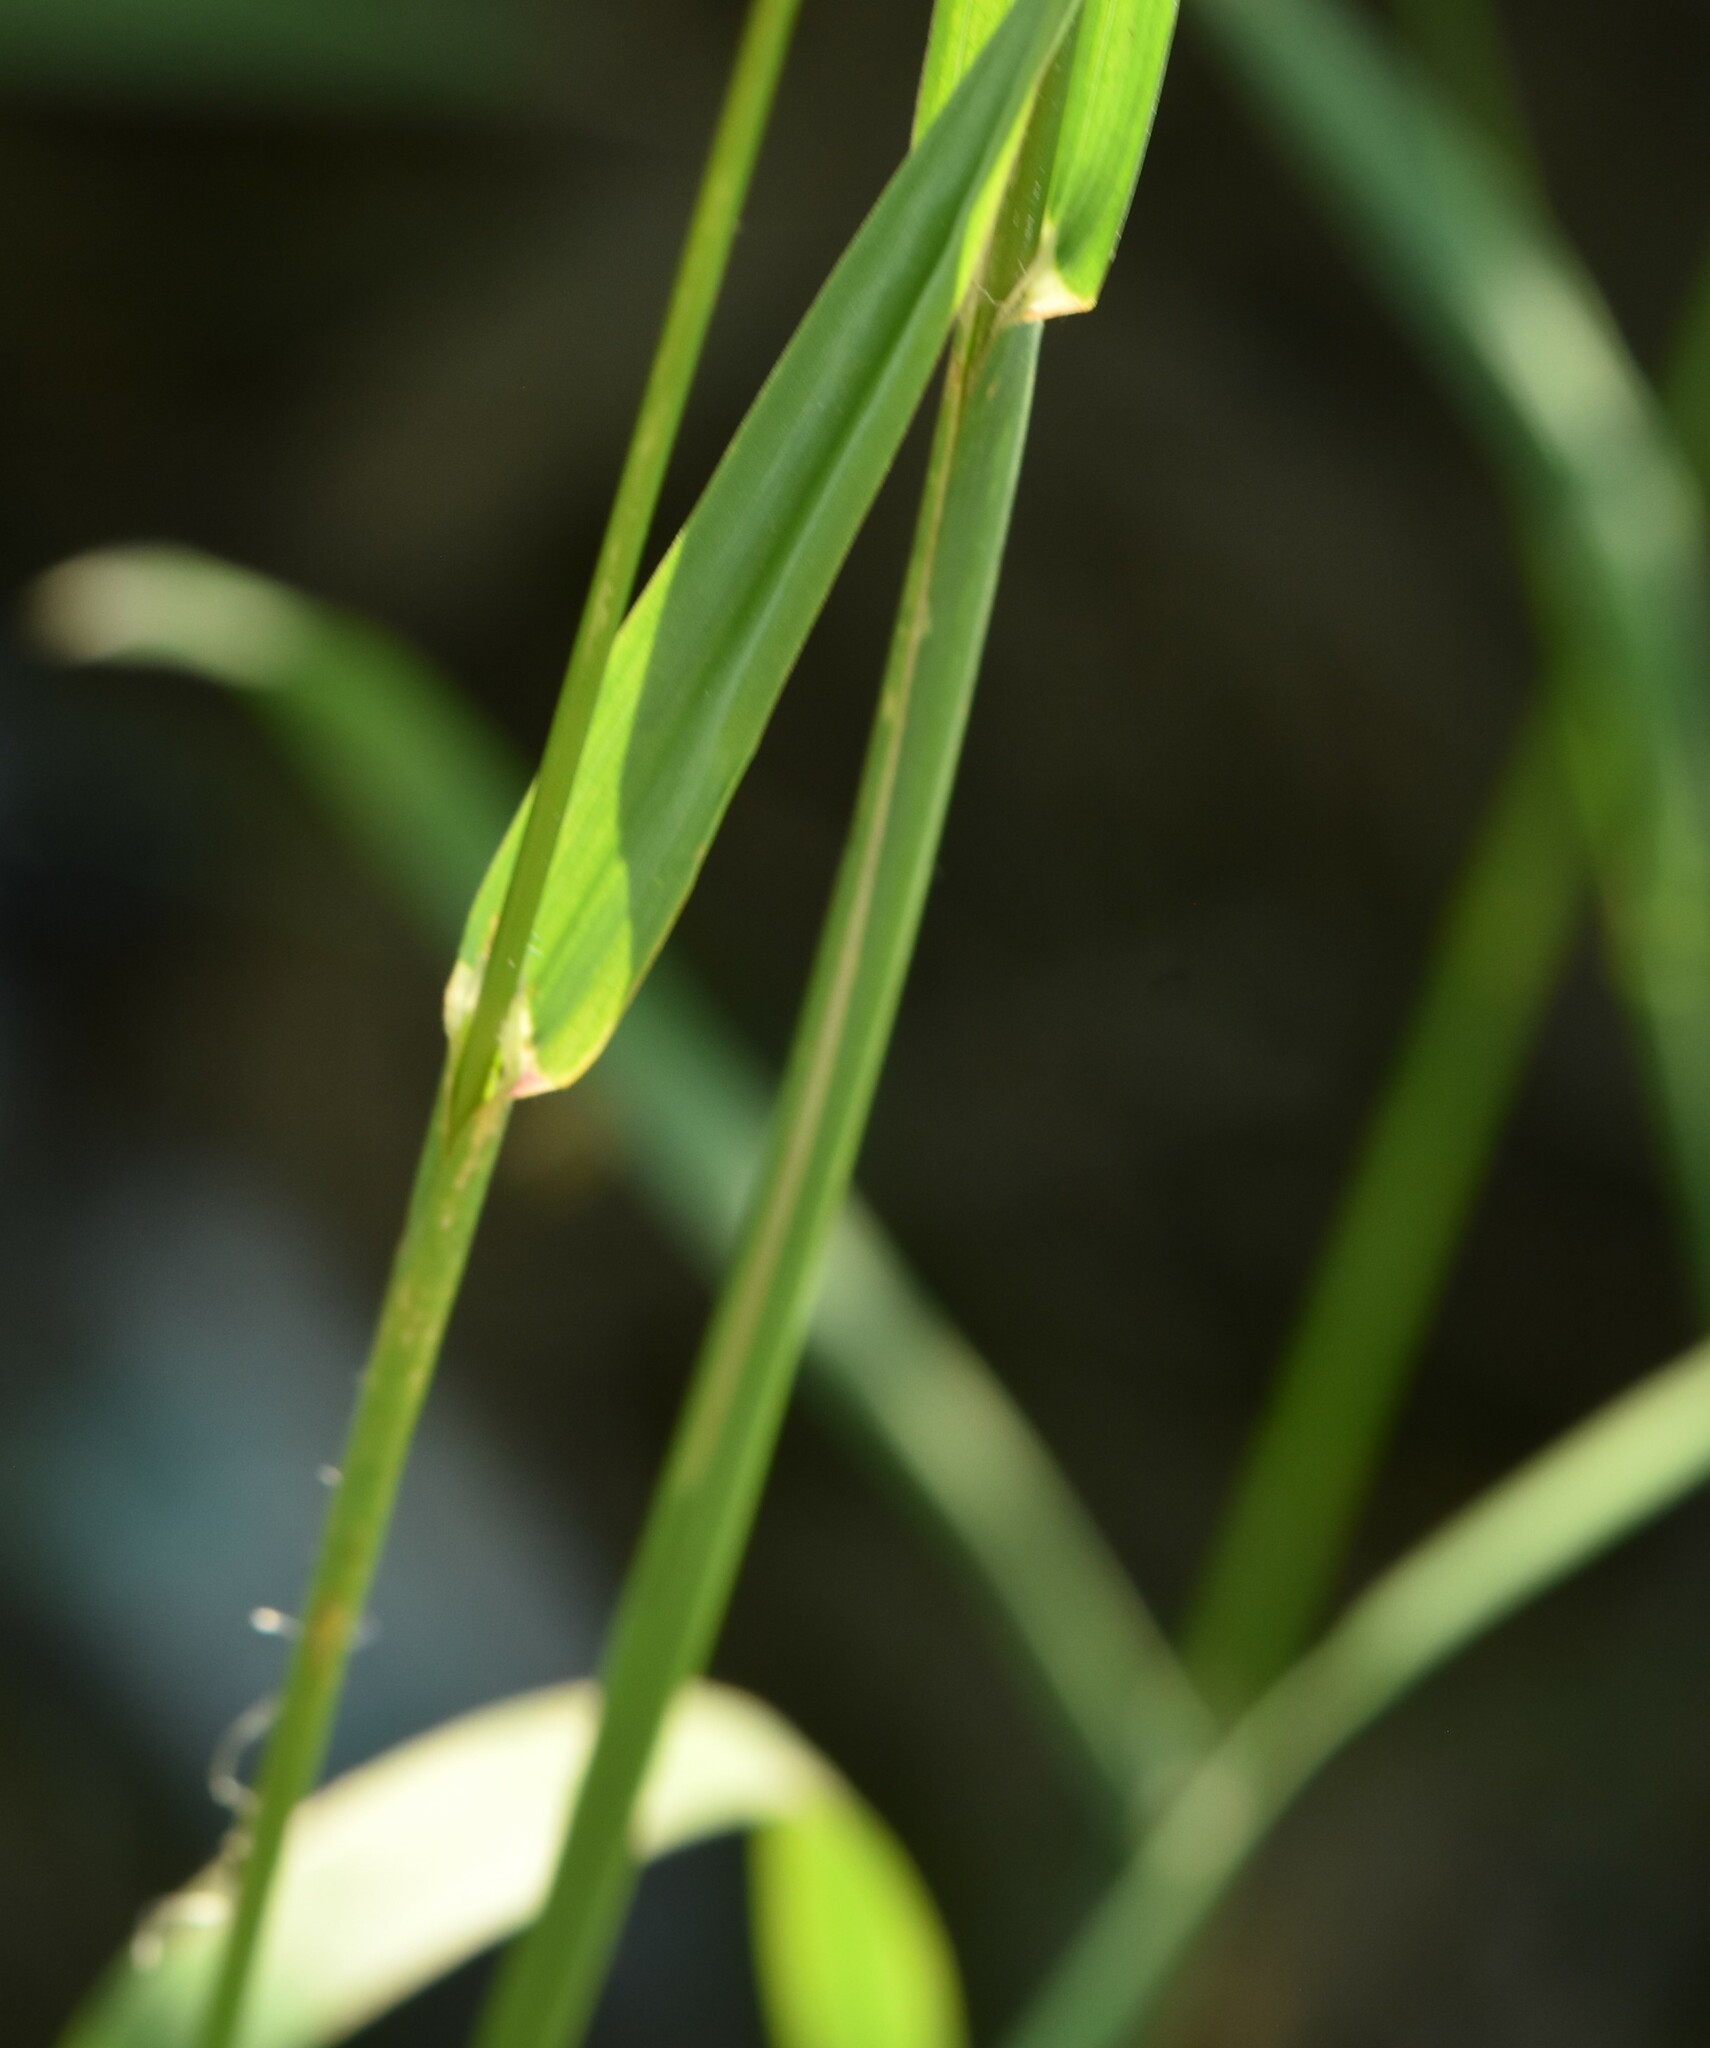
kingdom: Plantae
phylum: Tracheophyta
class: Liliopsida
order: Poales
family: Poaceae
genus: Dactylis
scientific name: Dactylis glomerata
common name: Orchardgrass
